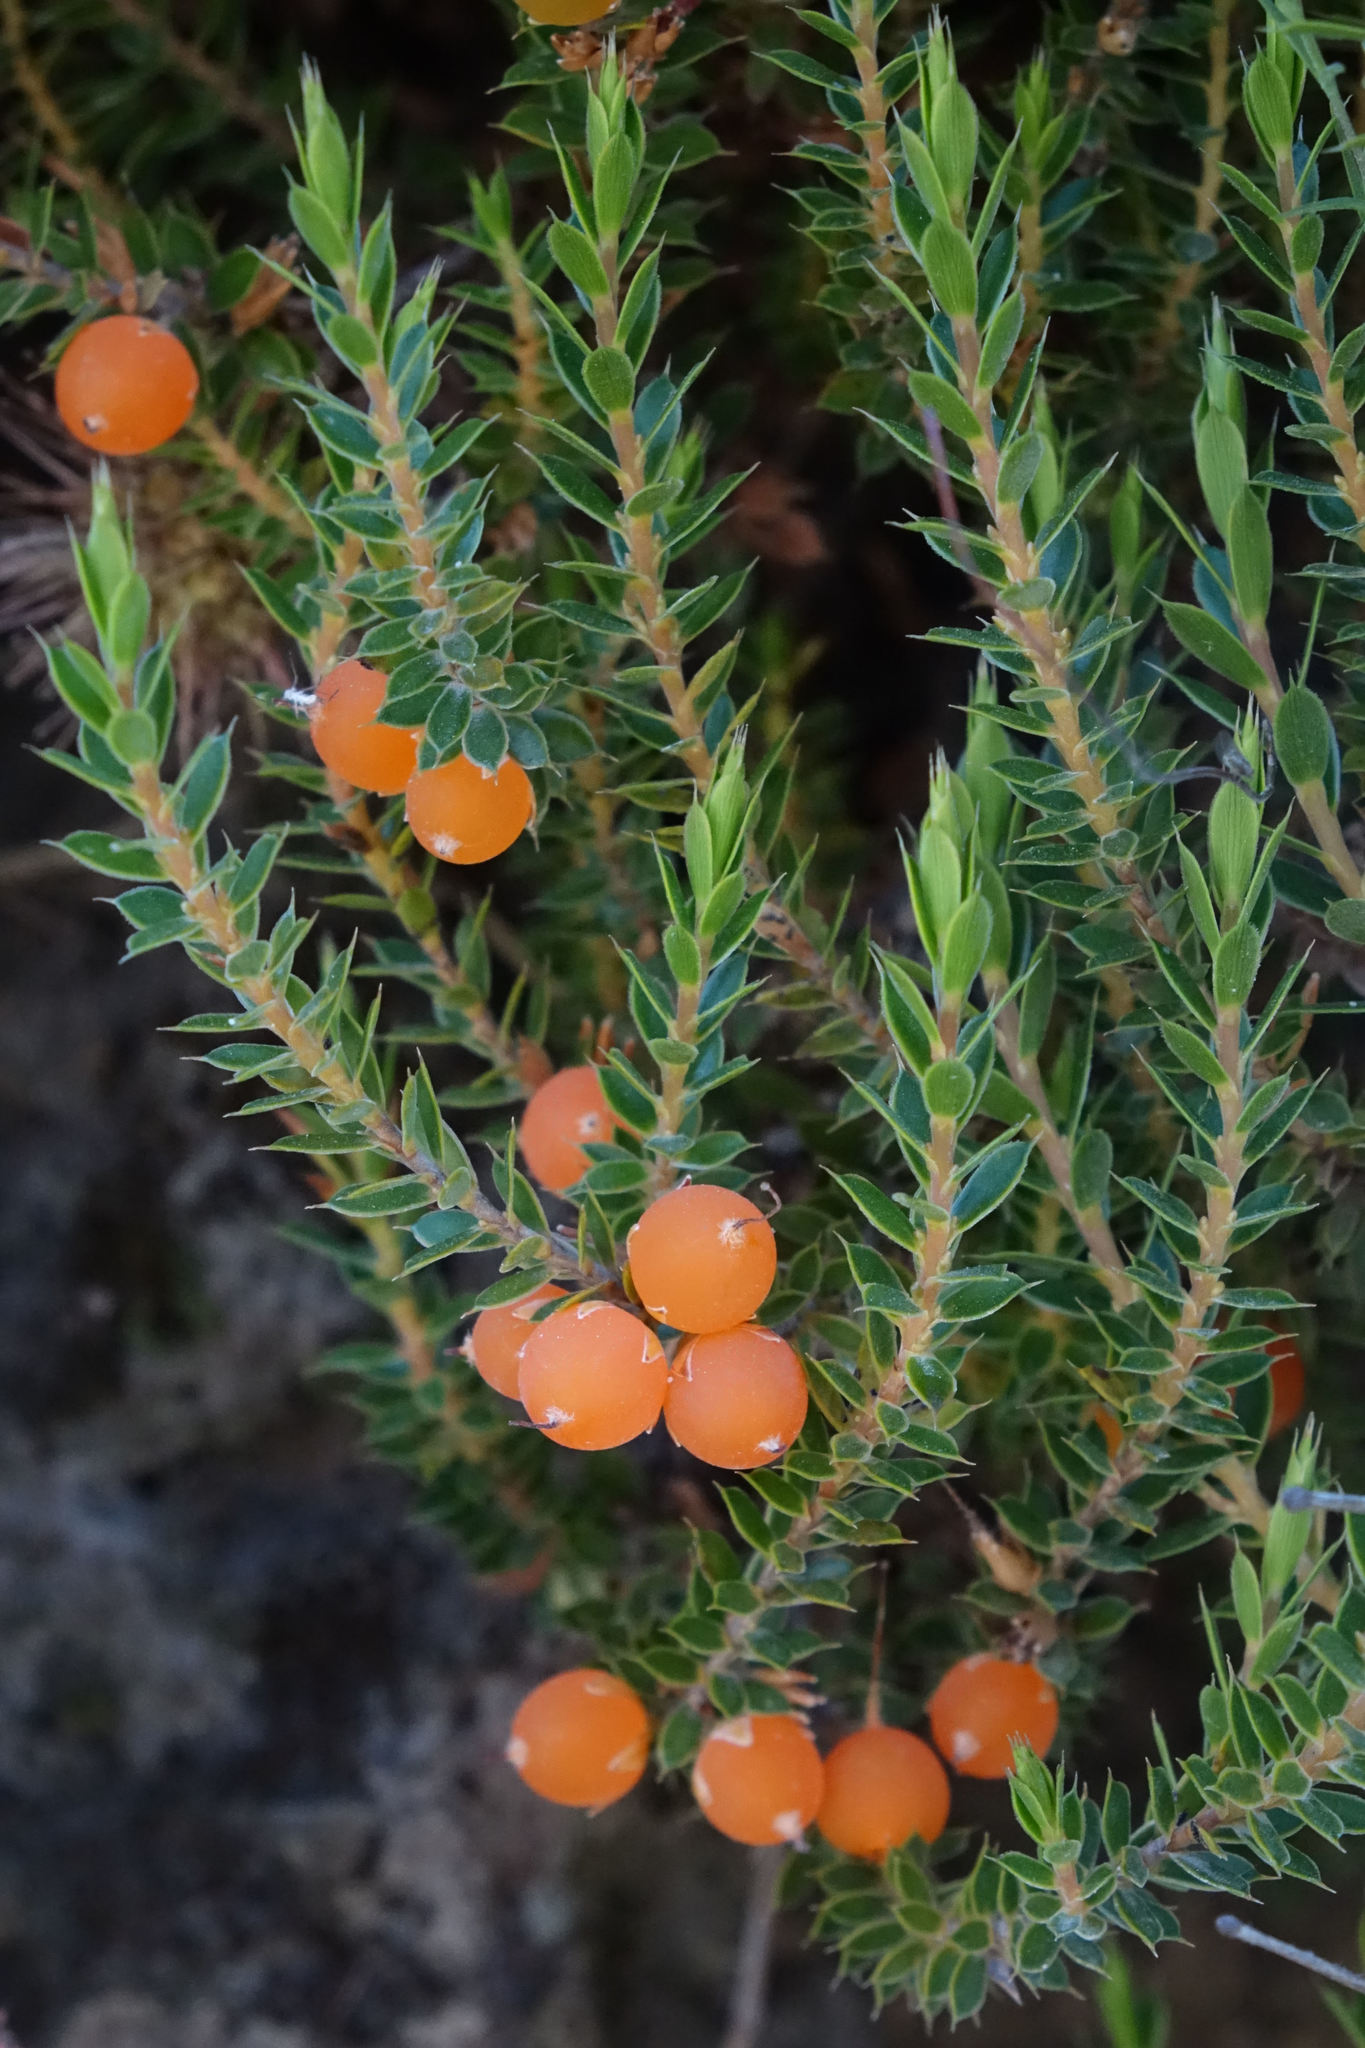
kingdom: Plantae
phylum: Tracheophyta
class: Magnoliopsida
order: Ericales
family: Ericaceae
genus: Styphelia
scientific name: Styphelia nesophila
